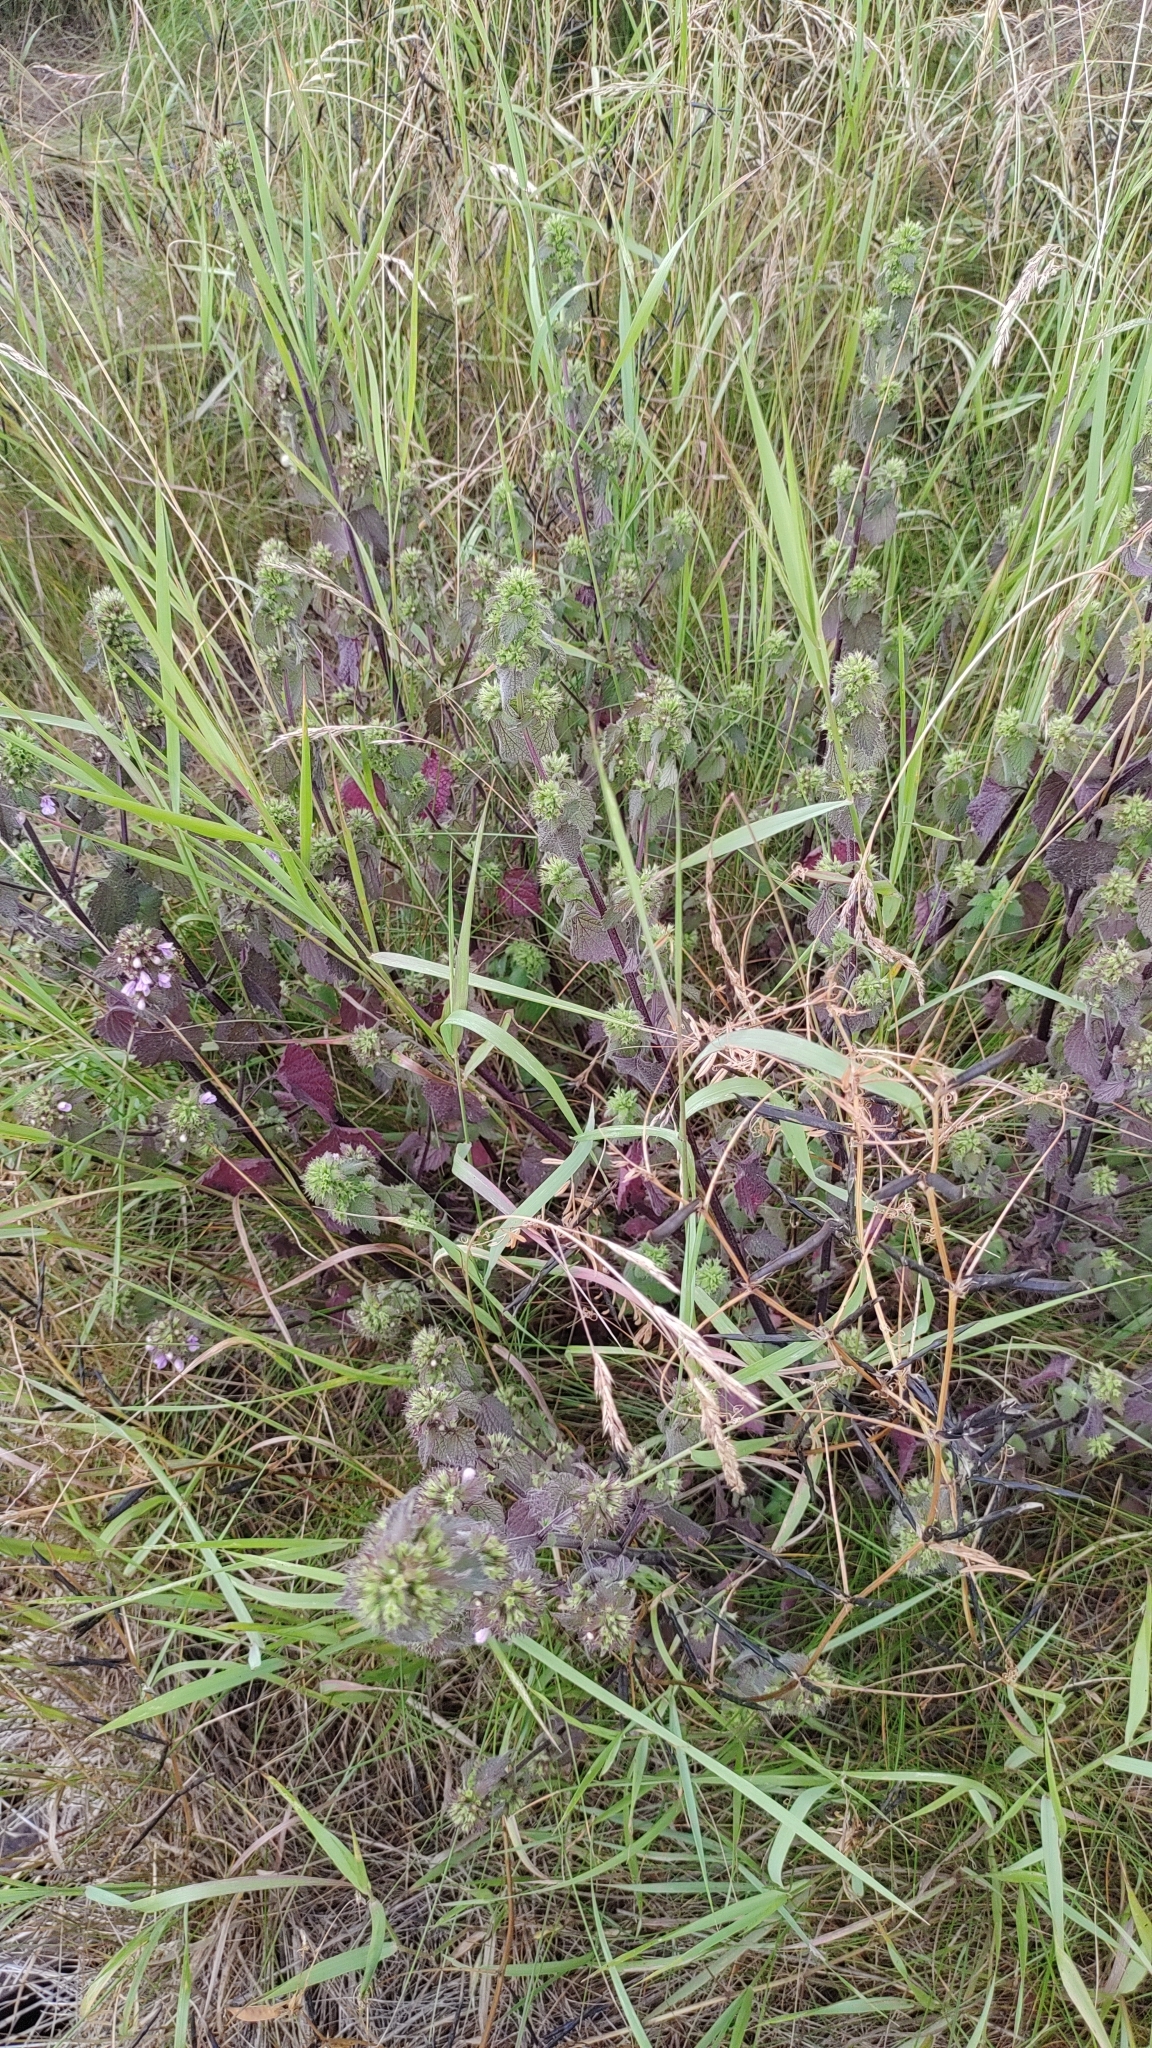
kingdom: Plantae
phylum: Tracheophyta
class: Magnoliopsida
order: Lamiales
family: Lamiaceae
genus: Ballota
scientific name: Ballota nigra
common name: Black horehound
